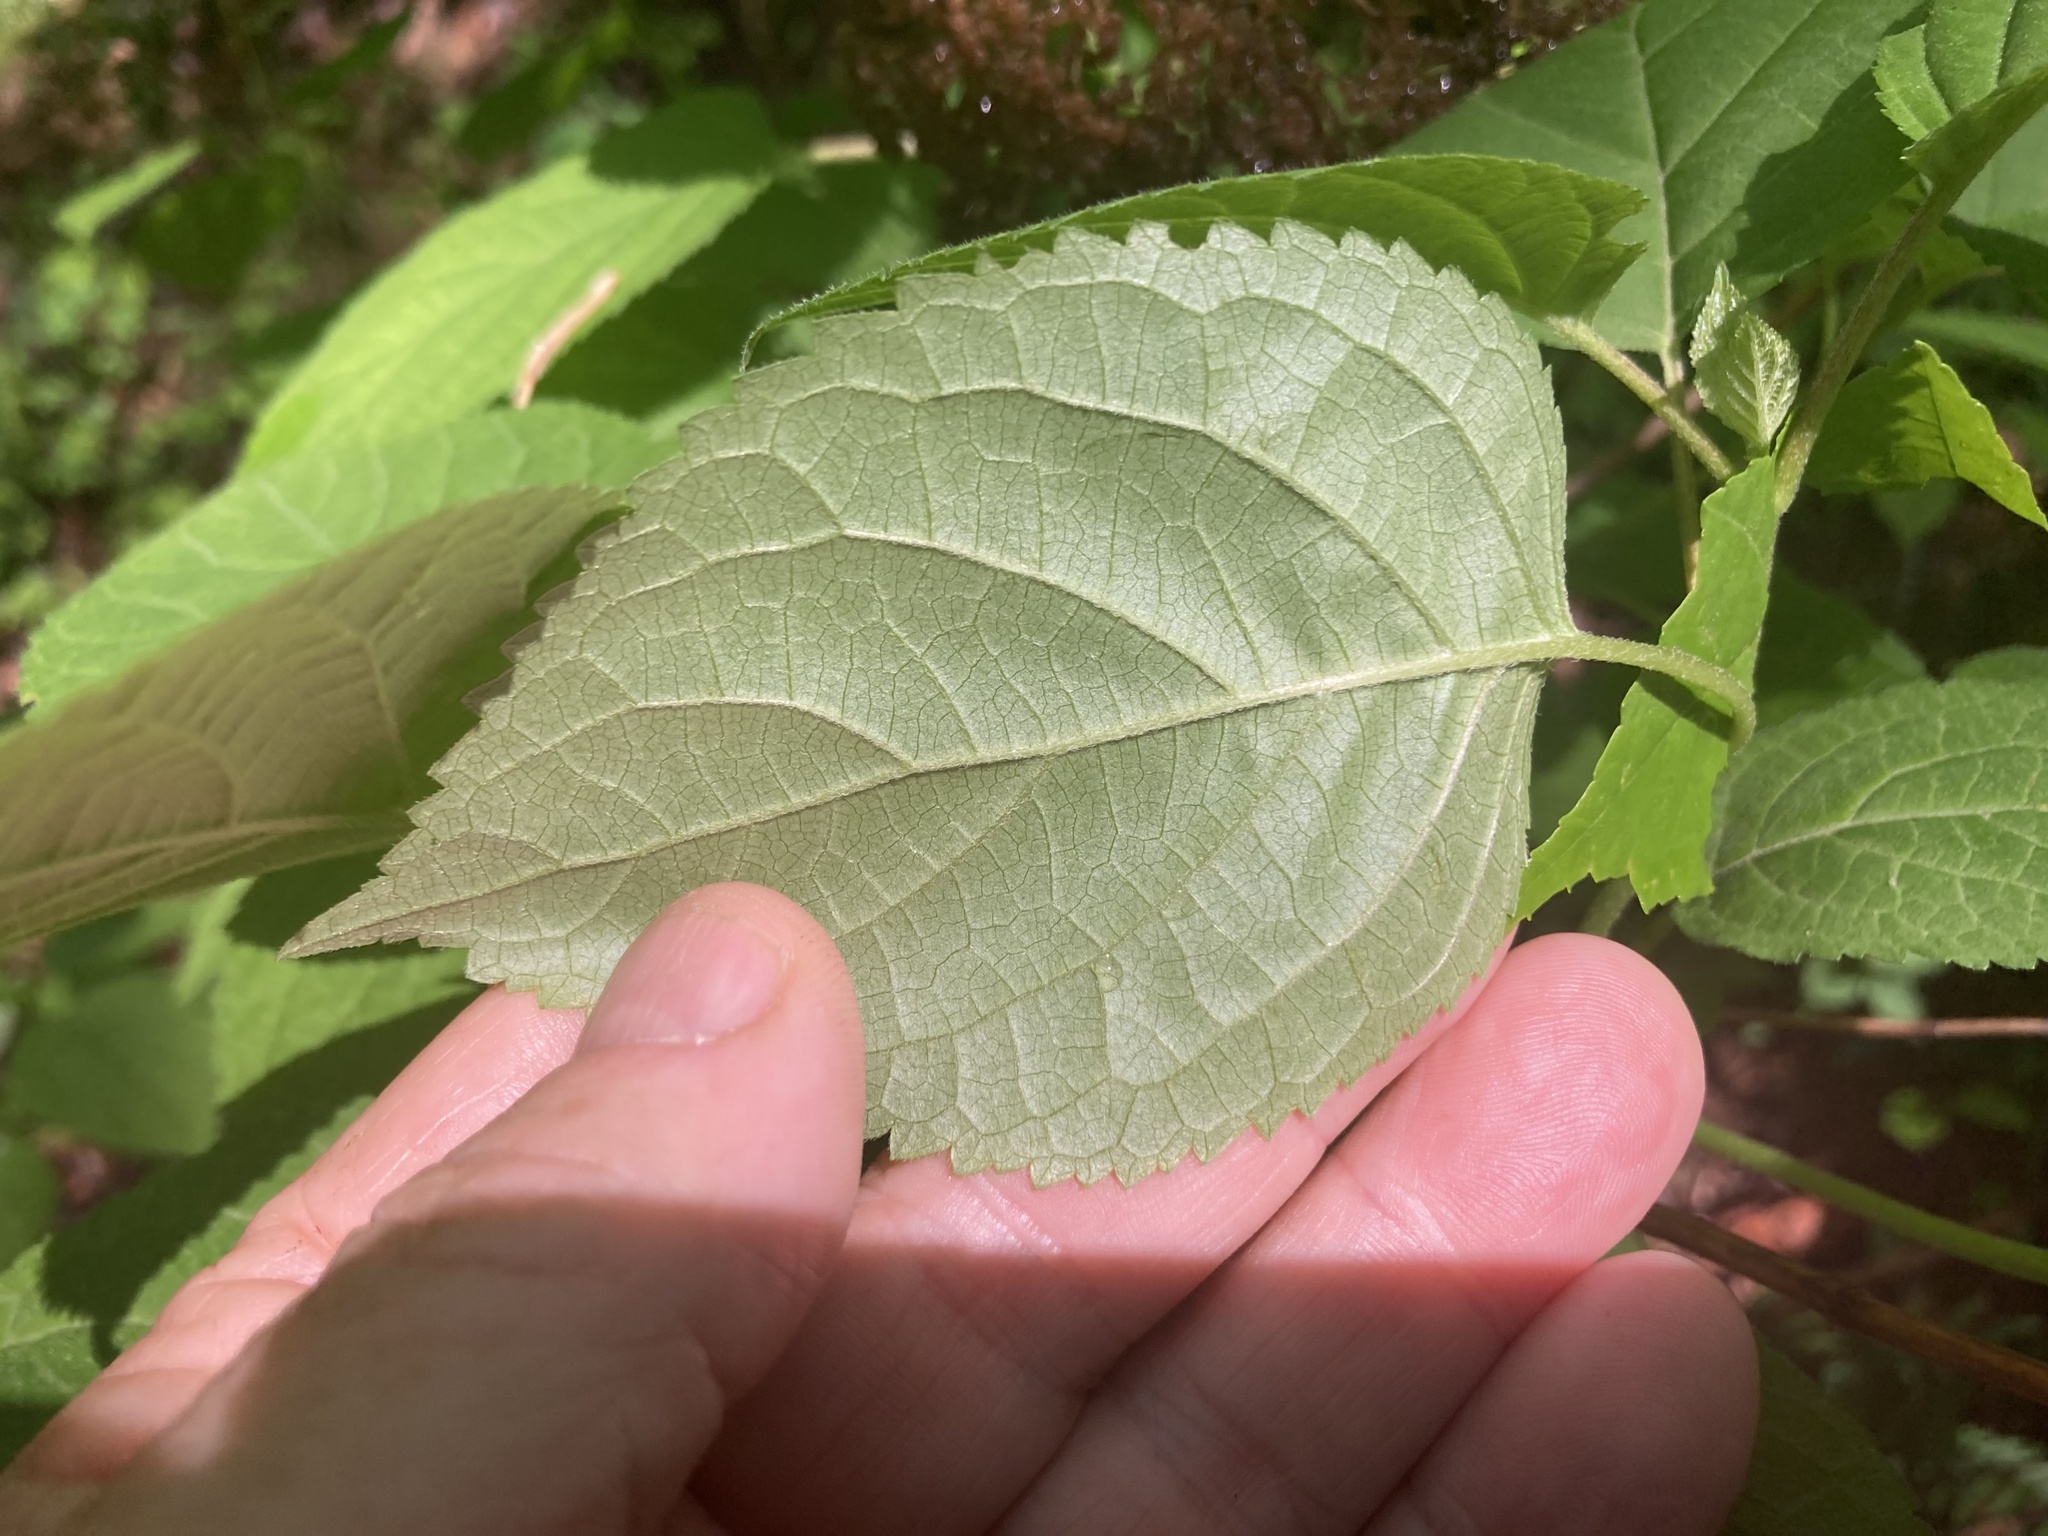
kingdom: Plantae
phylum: Tracheophyta
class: Magnoliopsida
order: Cornales
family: Hydrangeaceae
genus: Hydrangea
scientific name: Hydrangea arborescens
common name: Sevenbark
